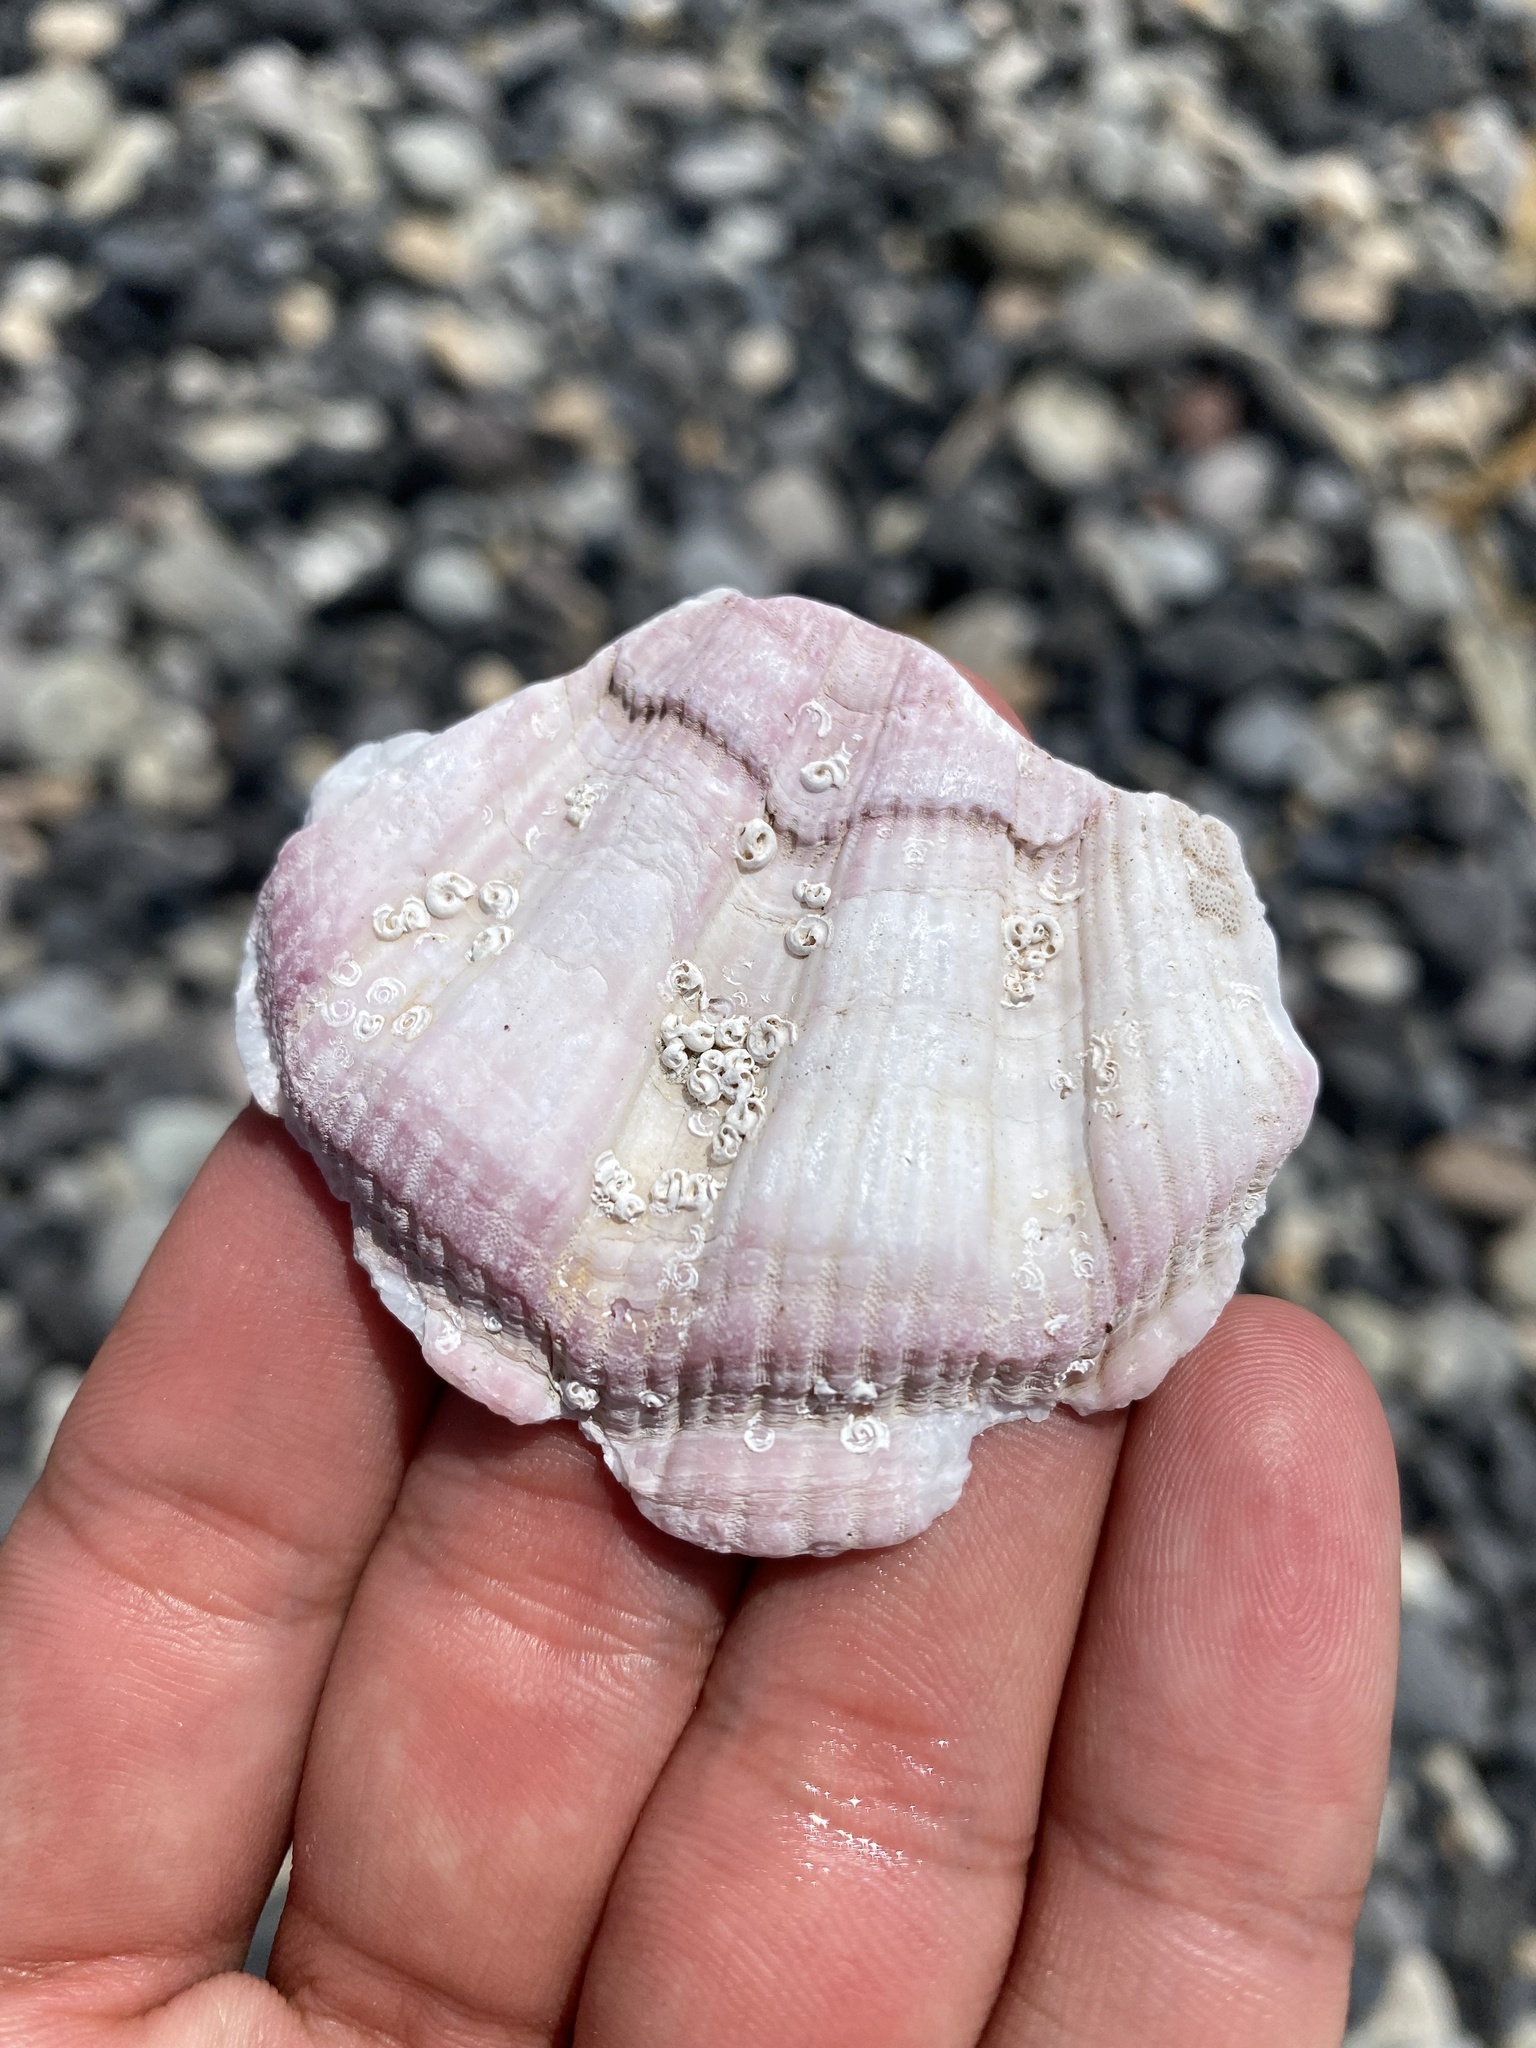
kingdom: Animalia
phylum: Mollusca
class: Bivalvia
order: Pectinida
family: Pectinidae
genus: Swiftopecten
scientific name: Swiftopecten swiftii
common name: Swift's scallop
